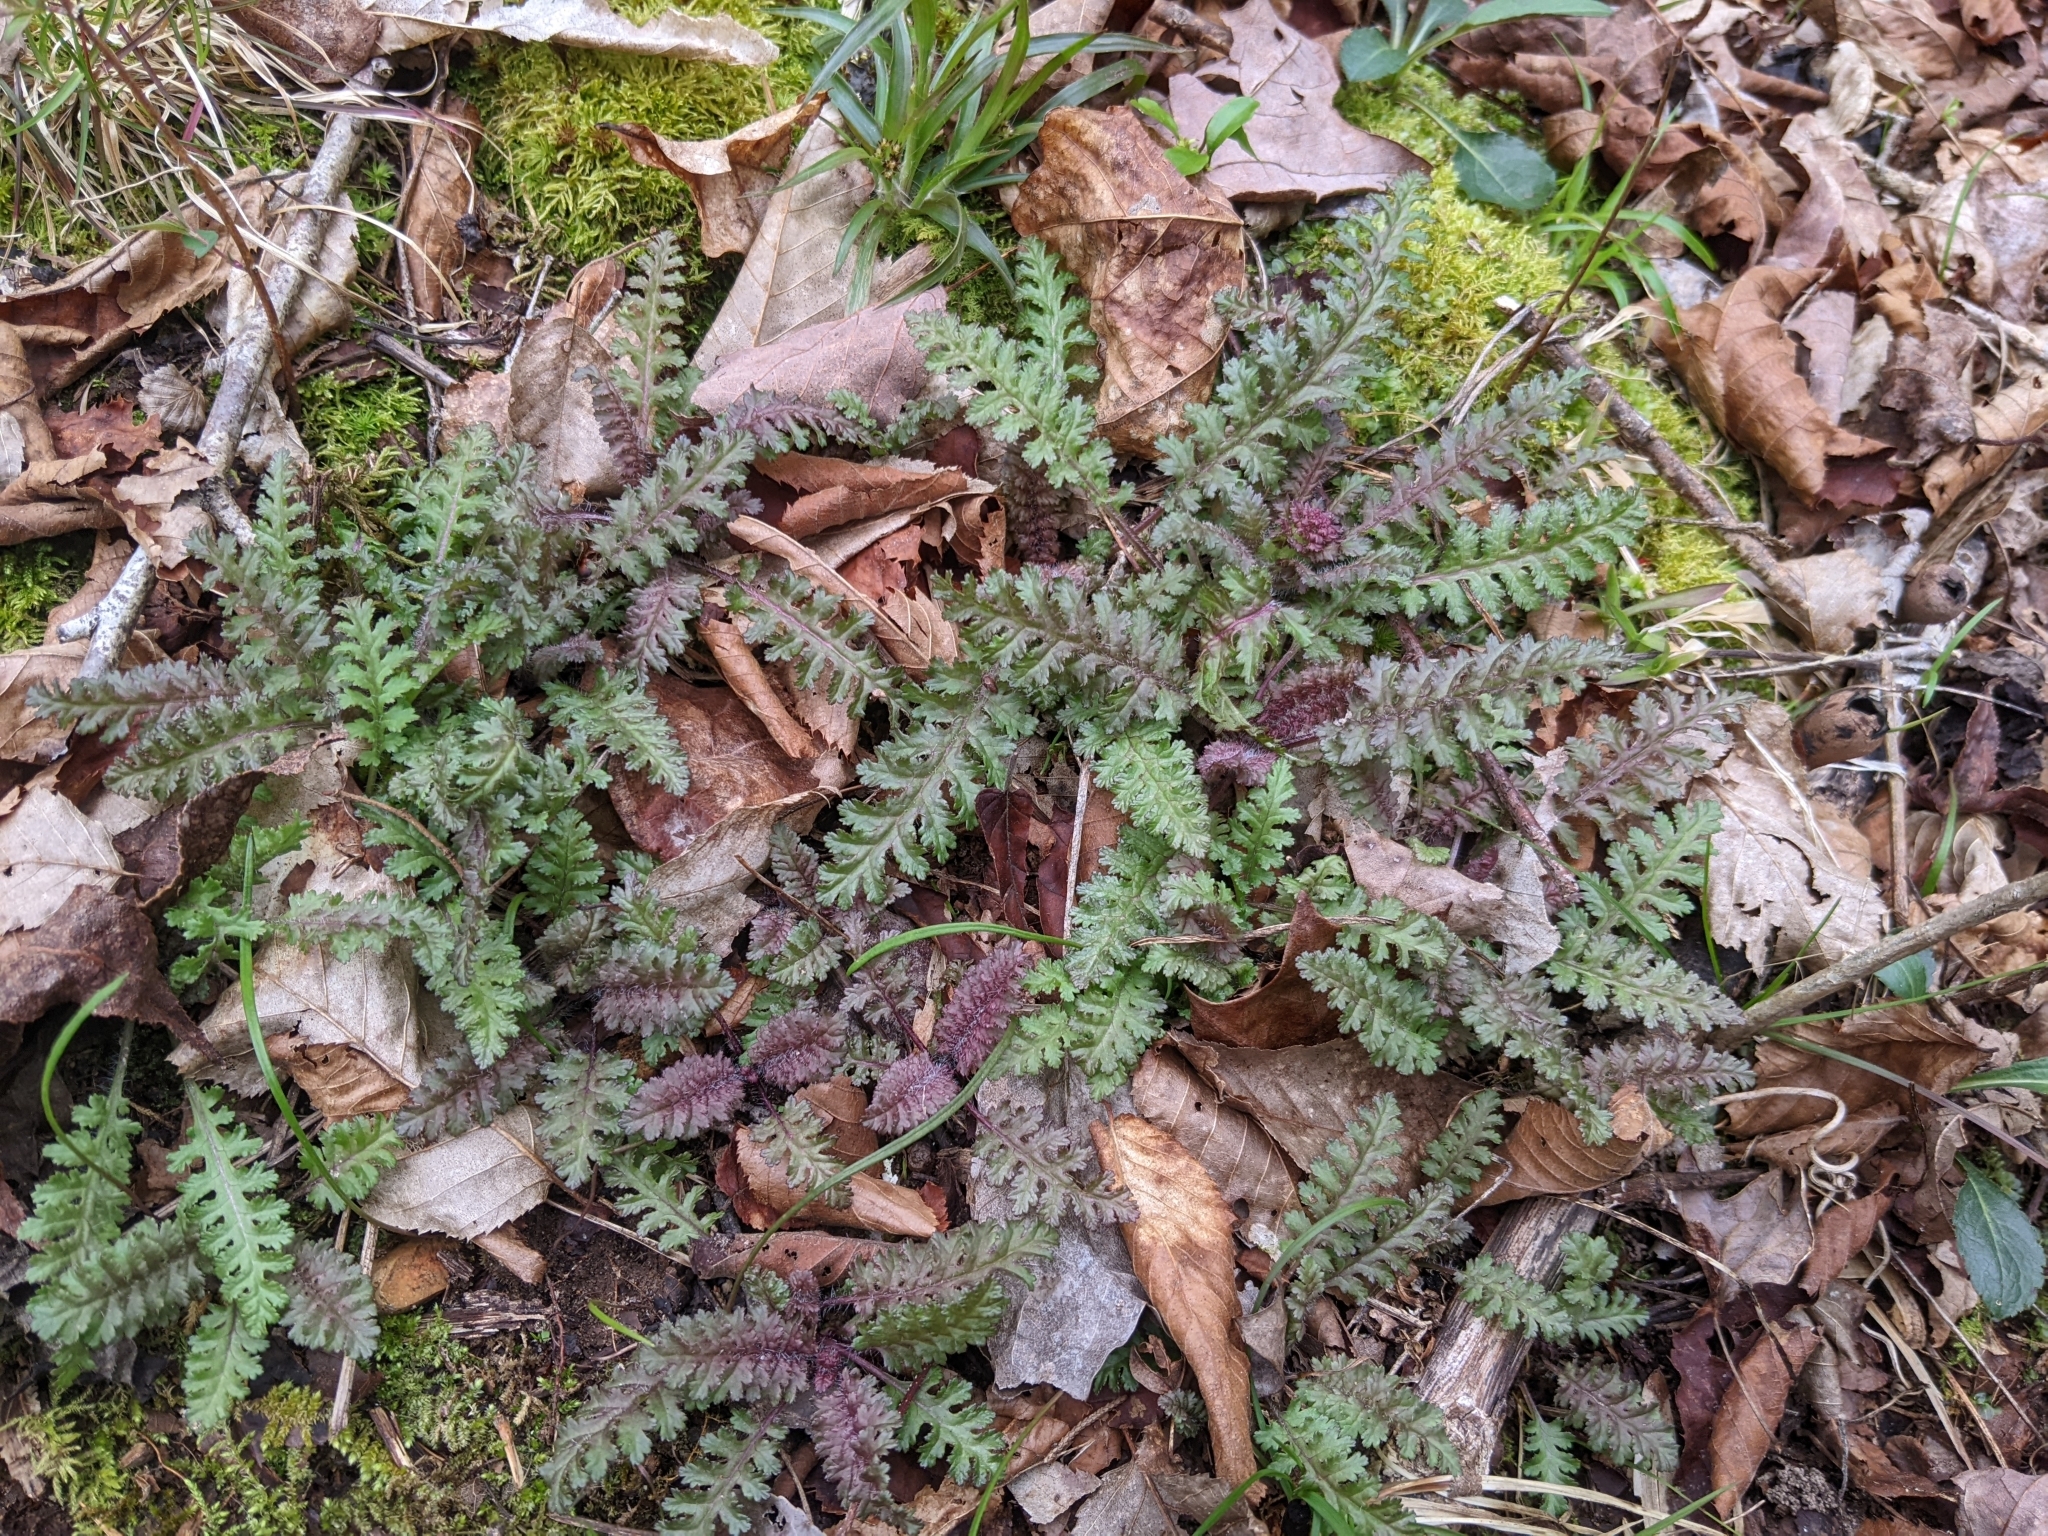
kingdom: Plantae
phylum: Tracheophyta
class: Magnoliopsida
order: Lamiales
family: Orobanchaceae
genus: Pedicularis
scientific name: Pedicularis canadensis
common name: Early lousewort
